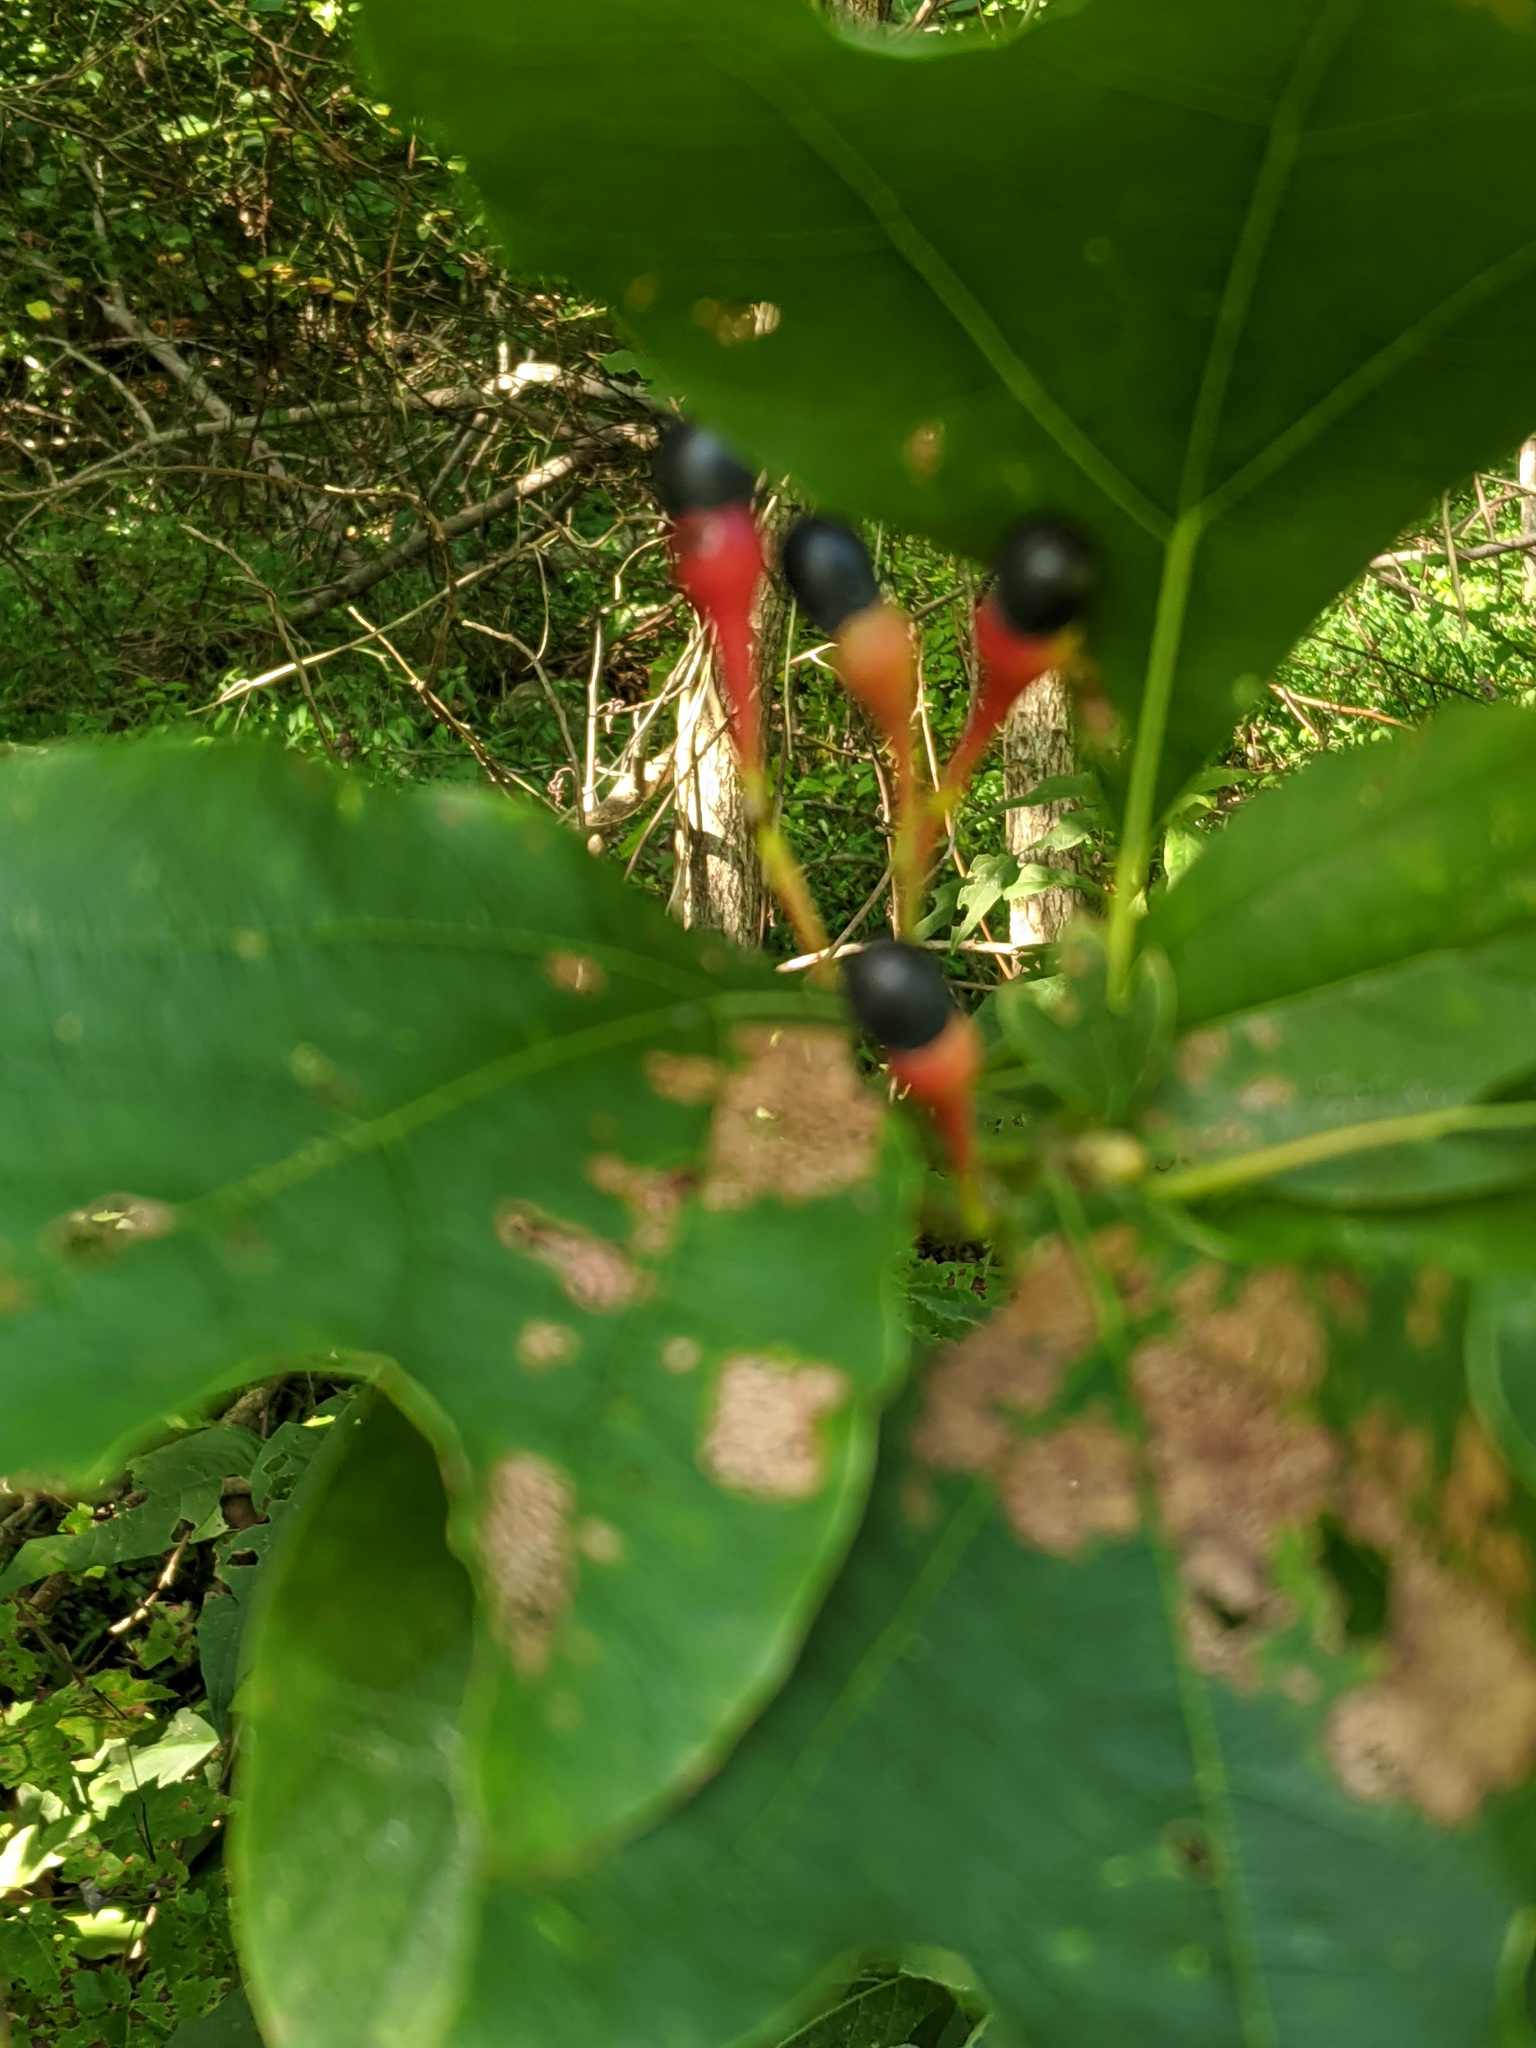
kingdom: Plantae
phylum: Tracheophyta
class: Magnoliopsida
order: Laurales
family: Lauraceae
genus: Sassafras
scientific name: Sassafras albidum
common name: Sassafras
